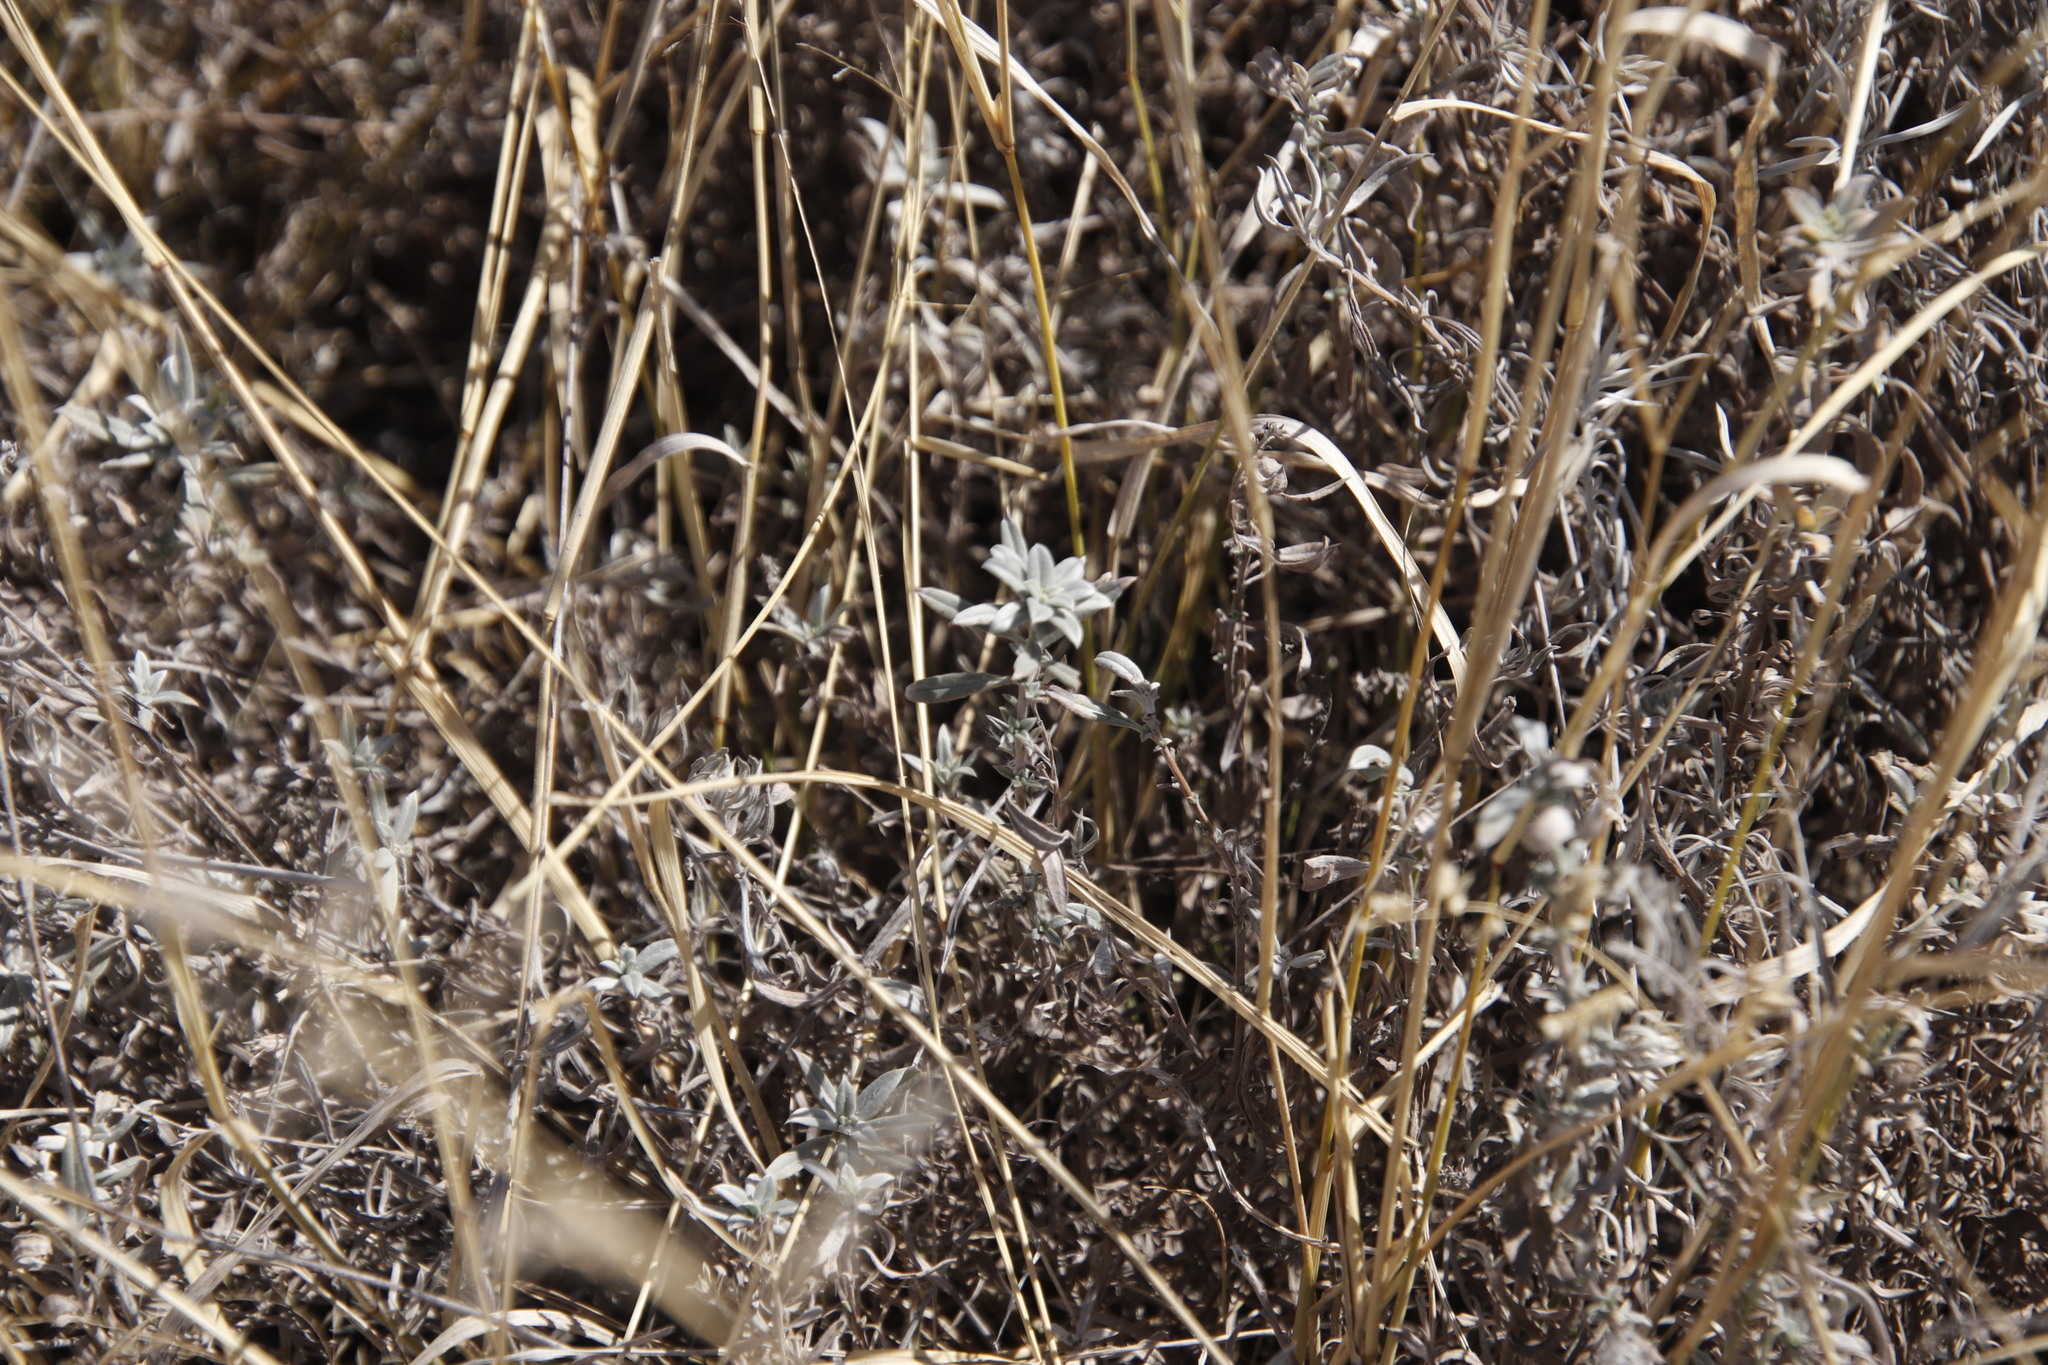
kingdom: Plantae
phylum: Tracheophyta
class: Magnoliopsida
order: Boraginales
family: Heliotropiaceae
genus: Euploca
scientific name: Euploca ovalifolia
